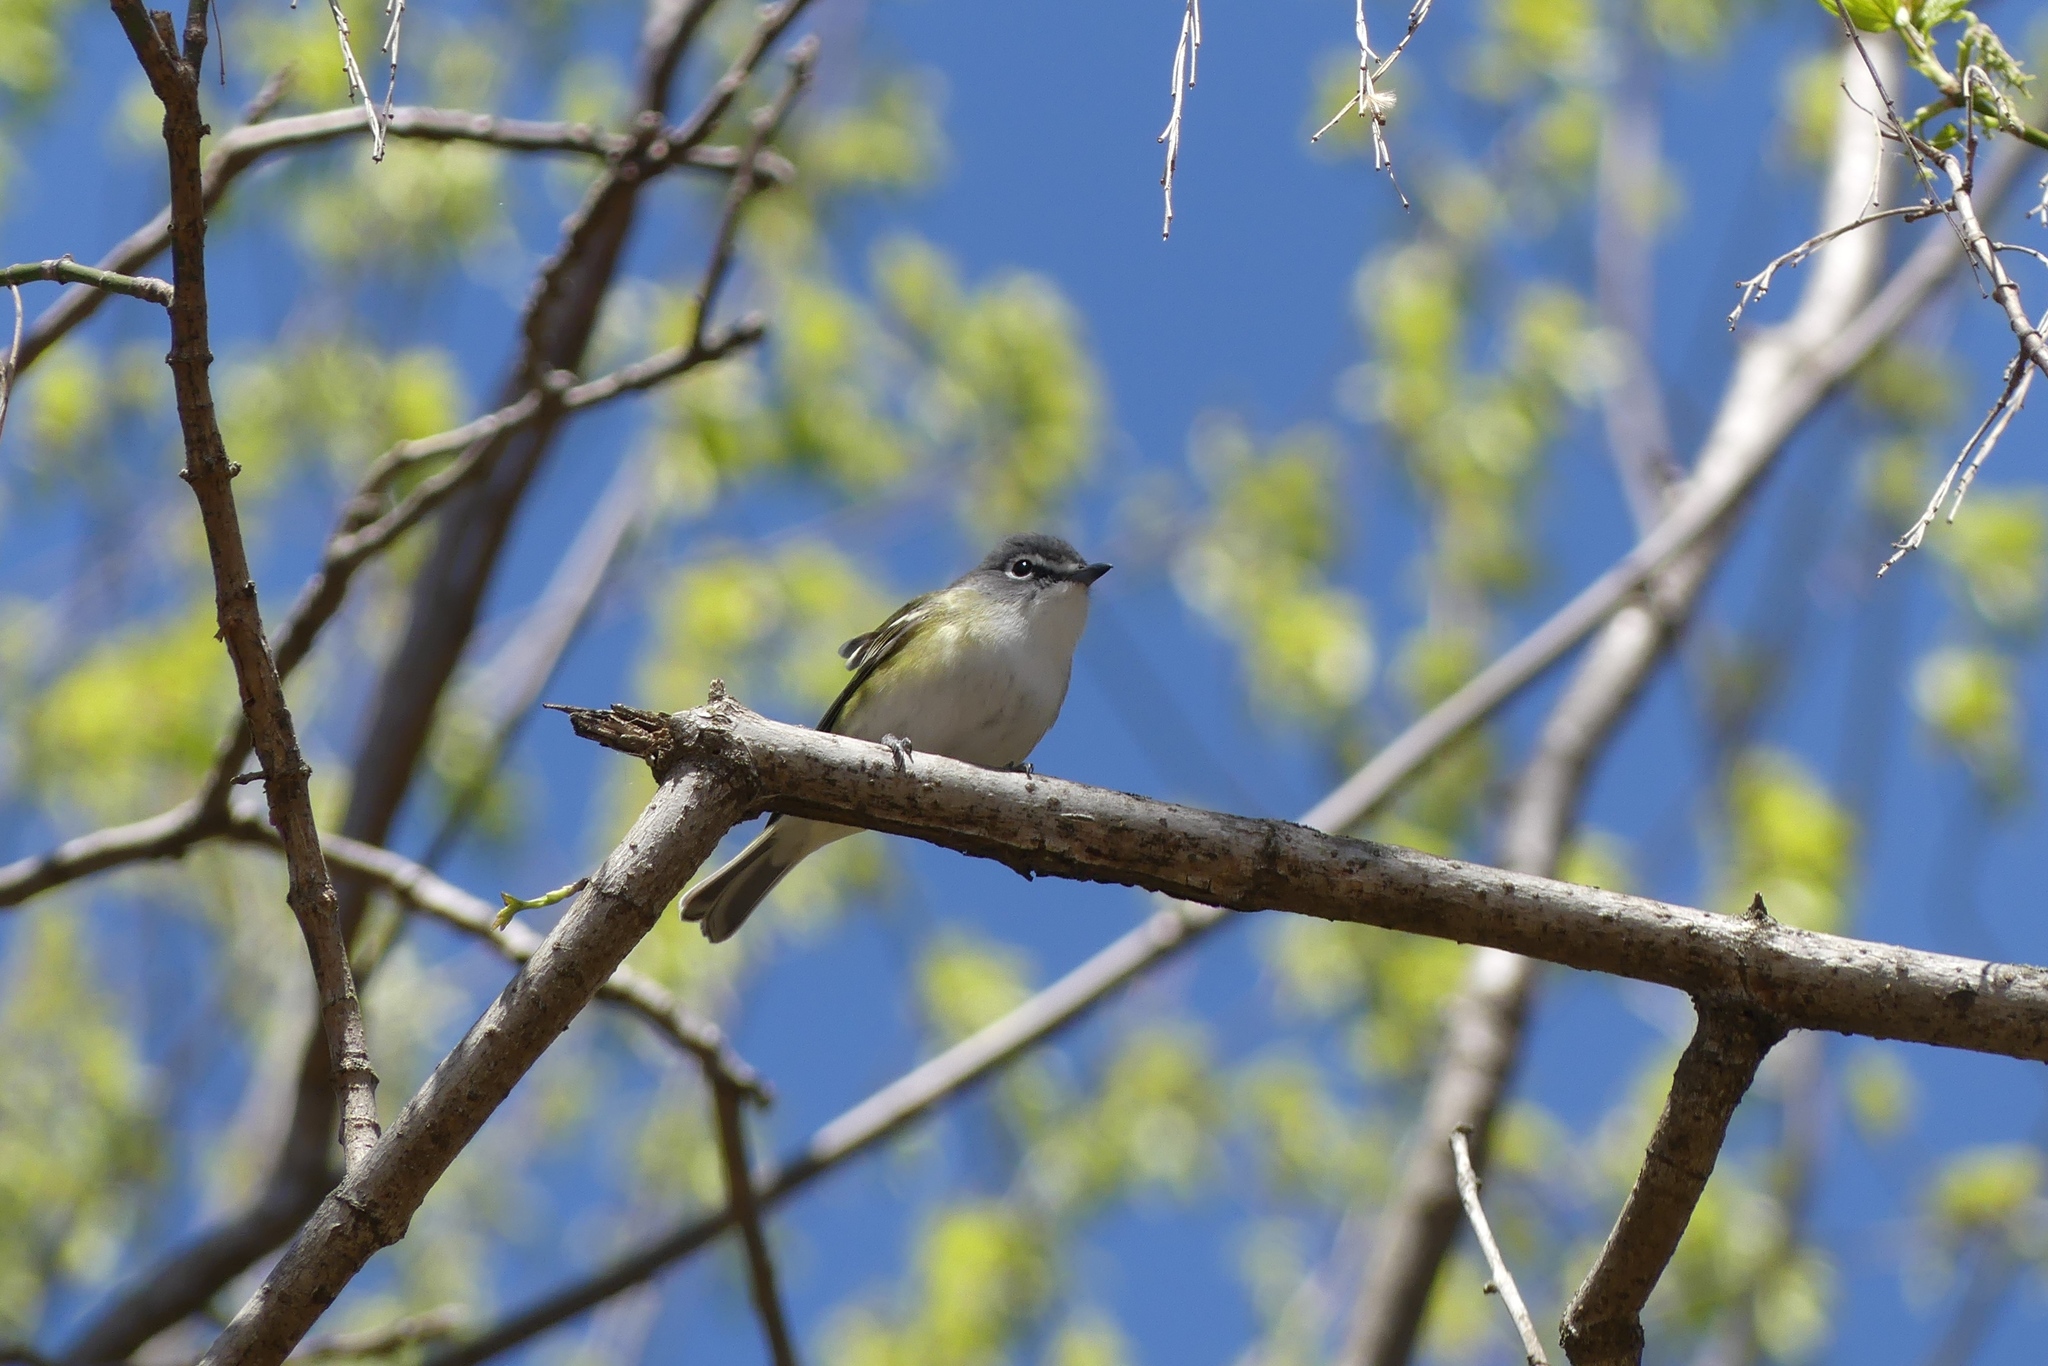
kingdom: Animalia
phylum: Chordata
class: Aves
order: Passeriformes
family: Vireonidae
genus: Vireo
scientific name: Vireo solitarius
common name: Blue-headed vireo
